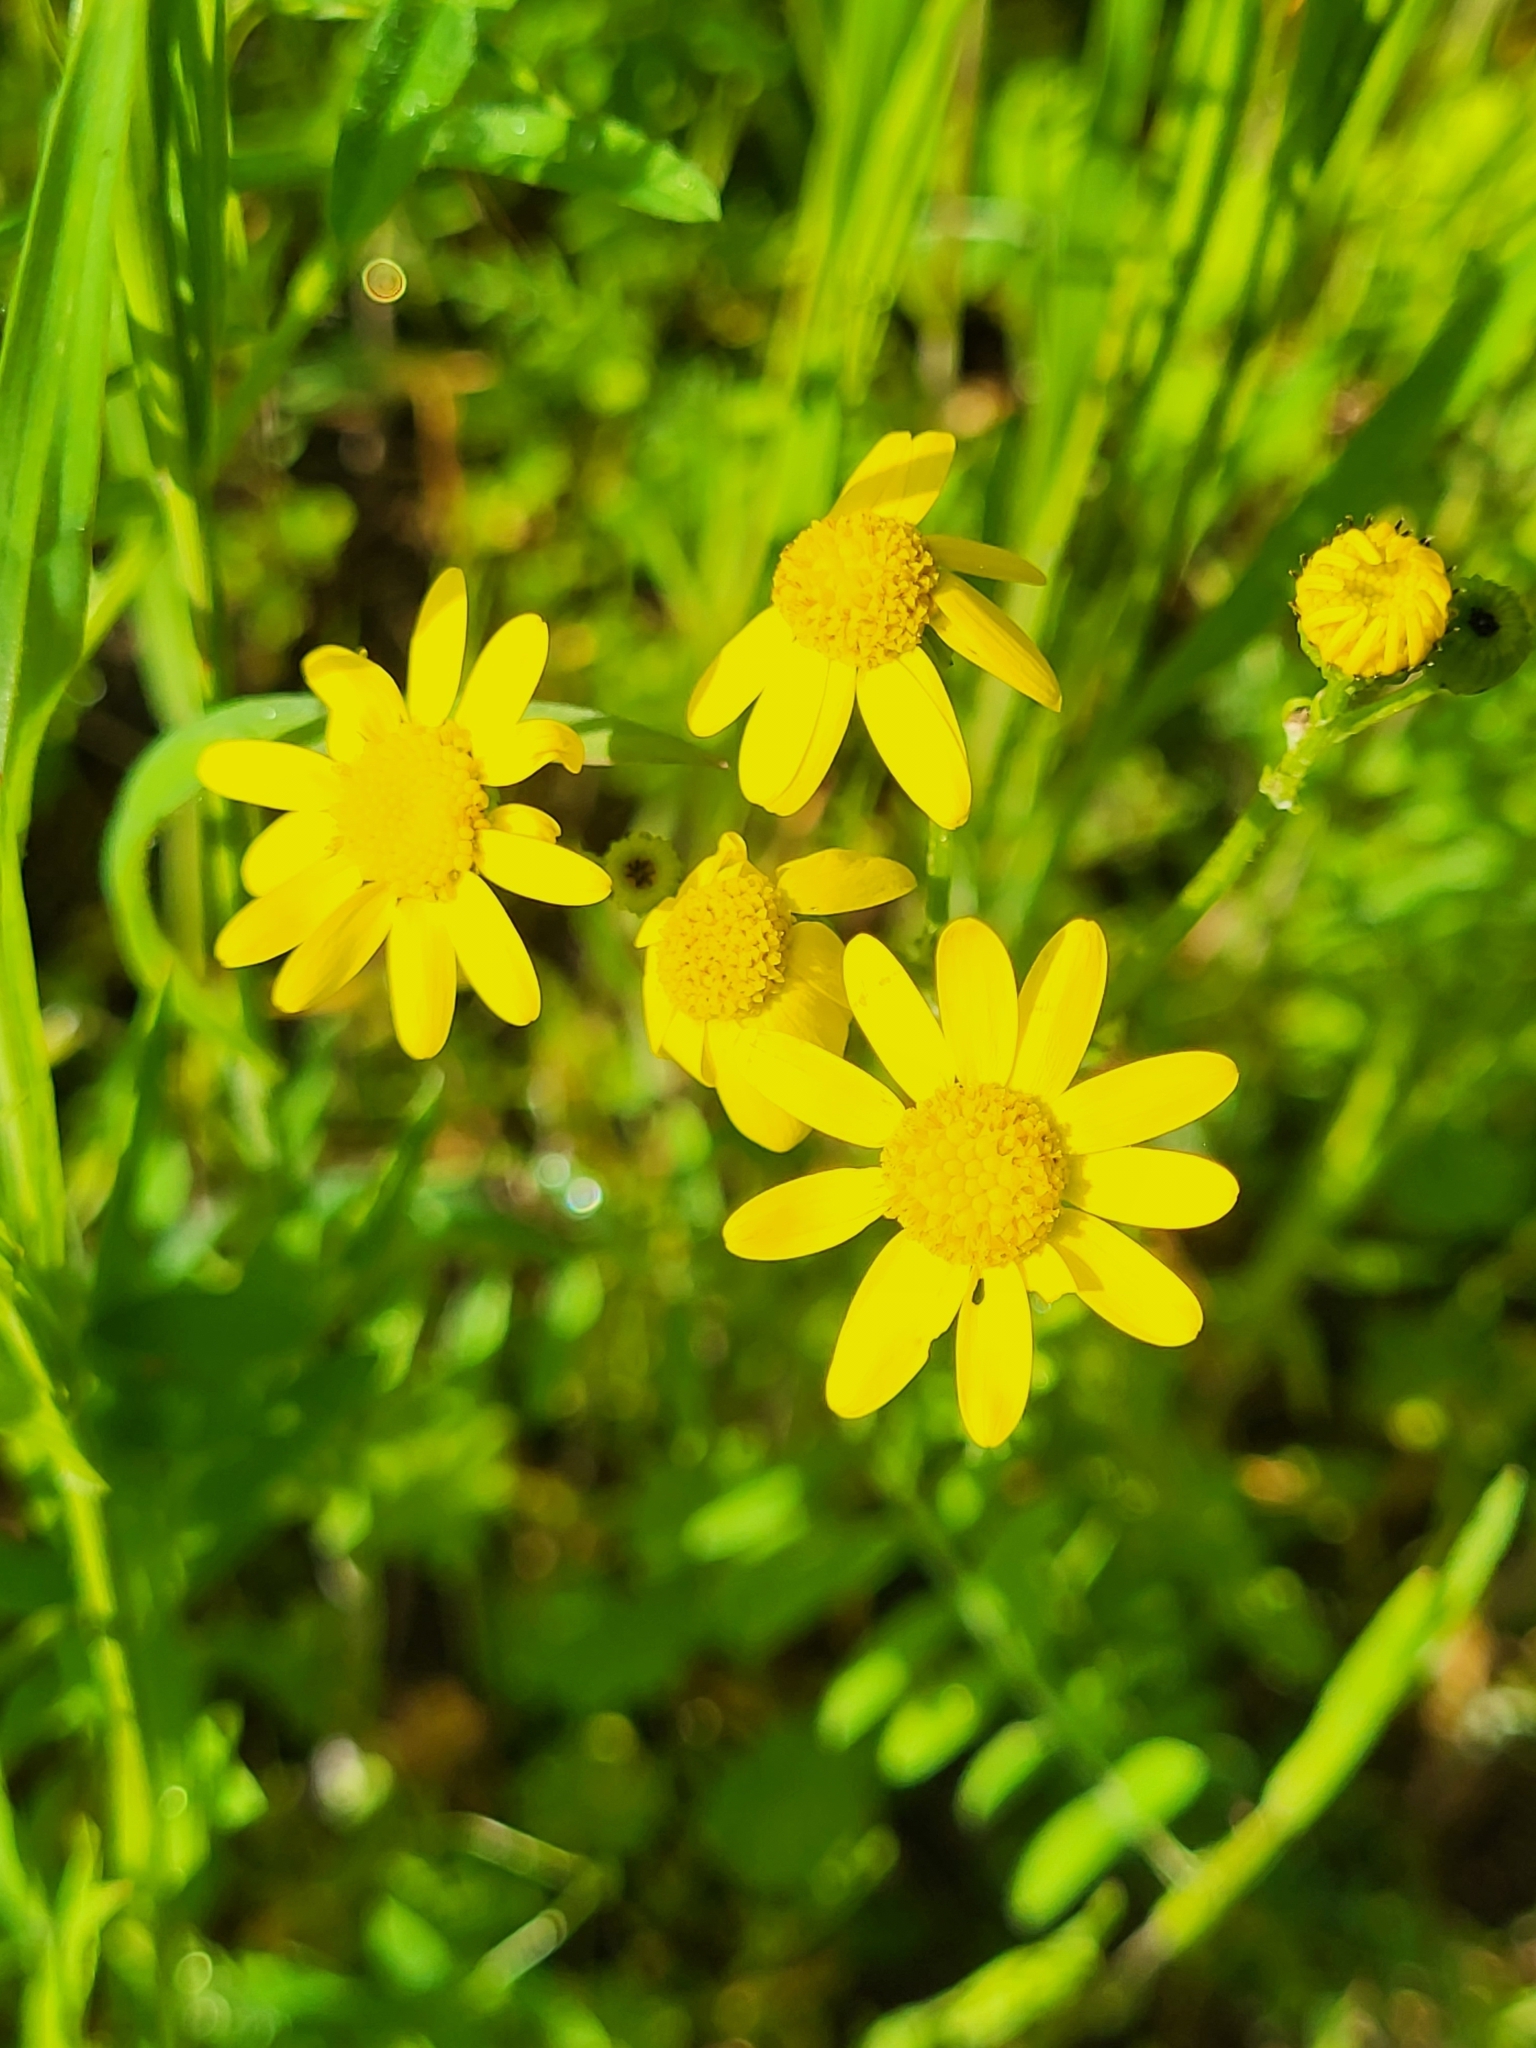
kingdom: Plantae
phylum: Tracheophyta
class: Magnoliopsida
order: Asterales
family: Asteraceae
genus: Senecio
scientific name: Senecio vernalis
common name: Eastern groundsel
